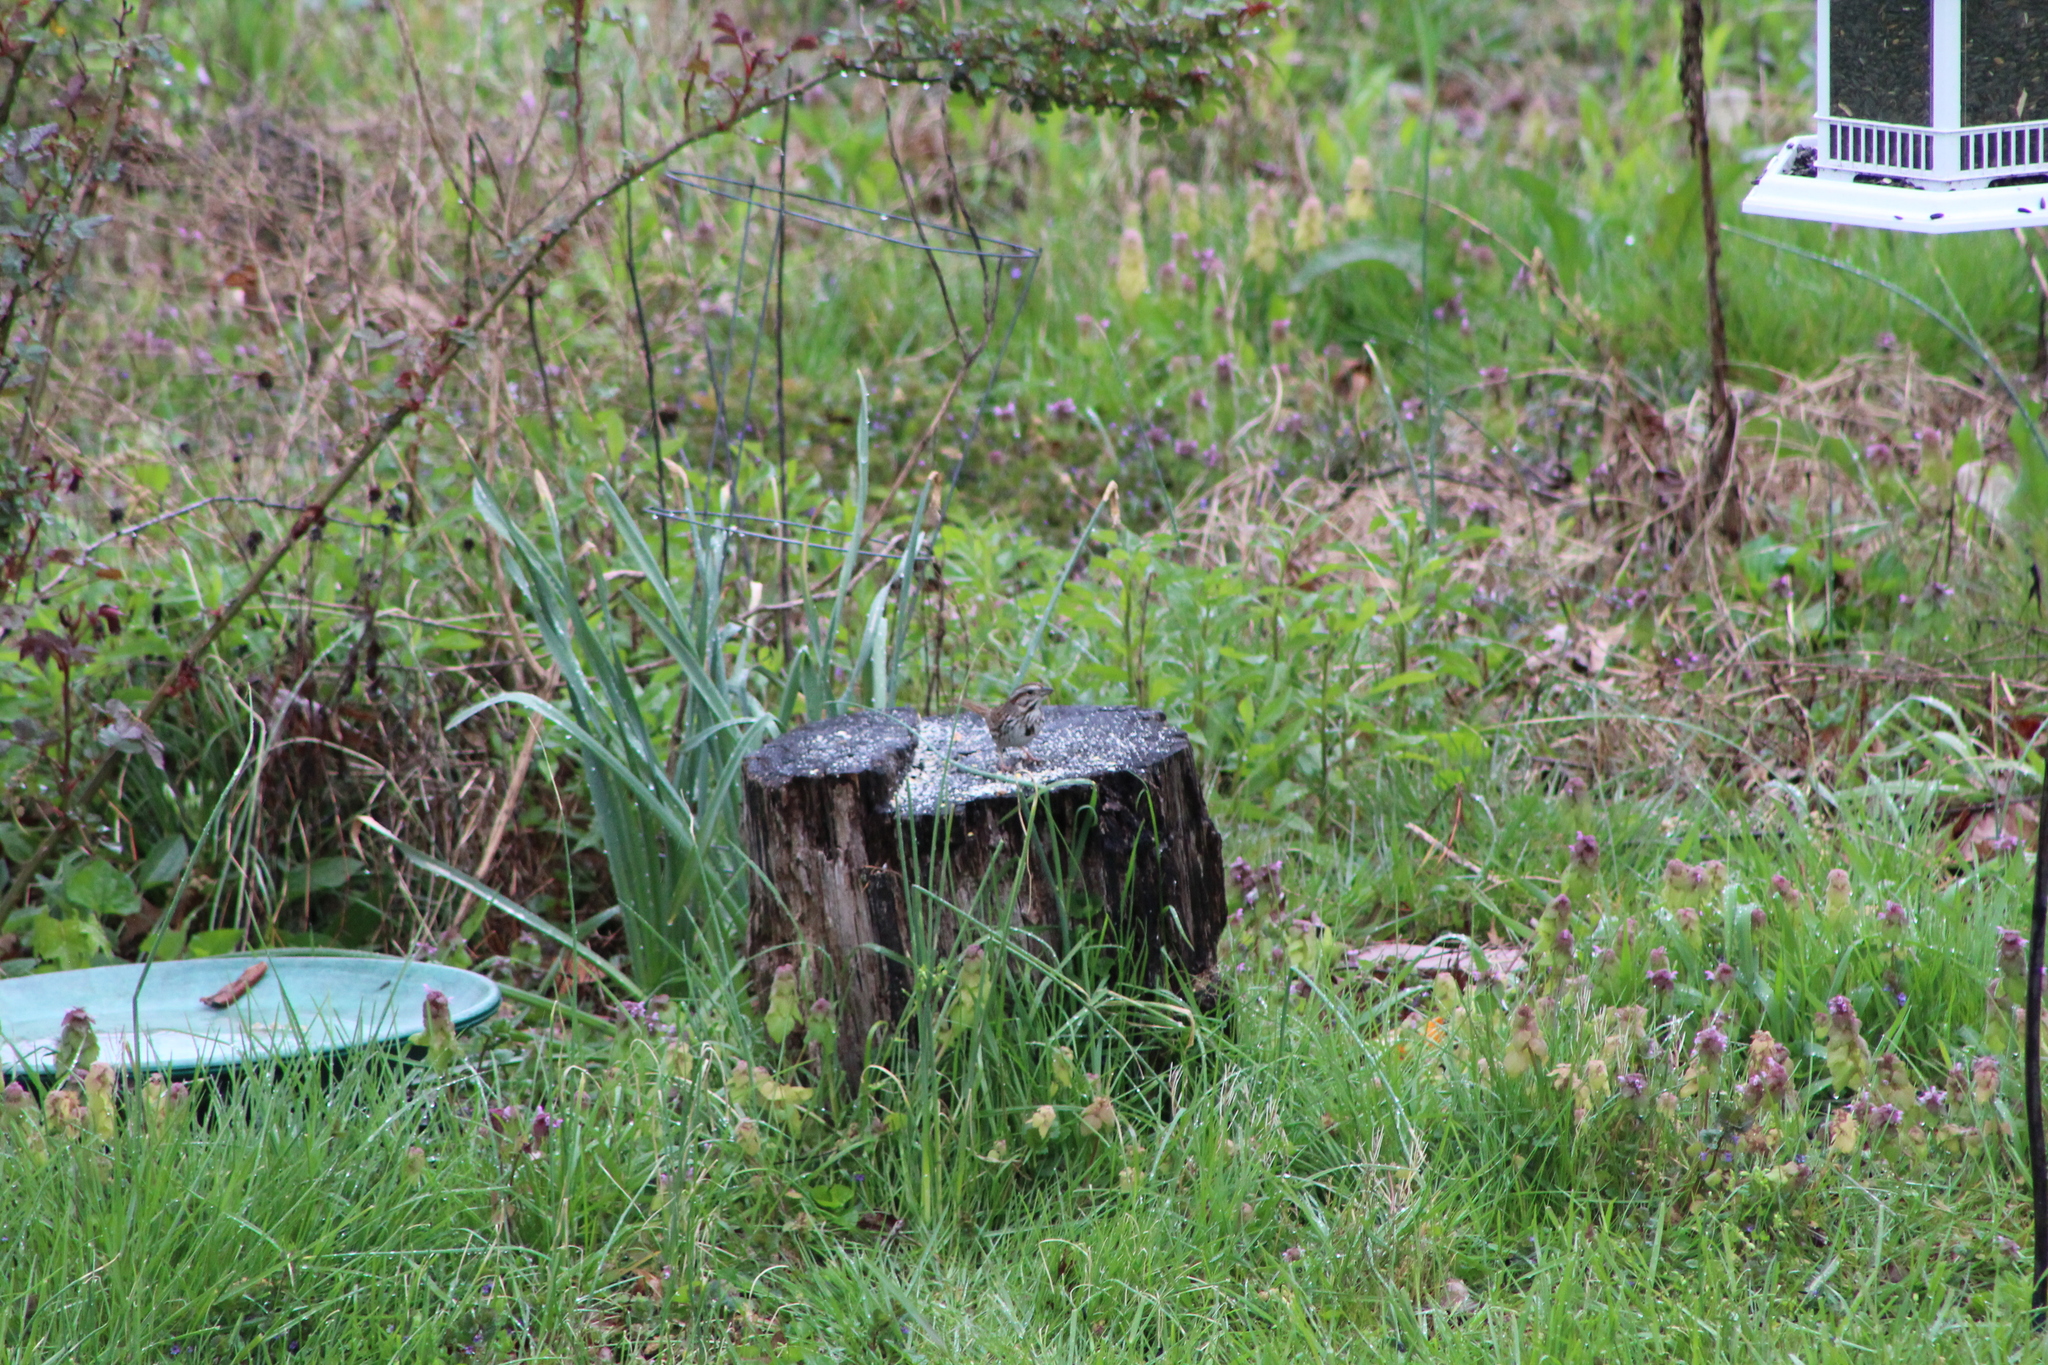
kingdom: Animalia
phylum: Chordata
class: Aves
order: Passeriformes
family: Passerellidae
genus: Melospiza
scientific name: Melospiza melodia
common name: Song sparrow
